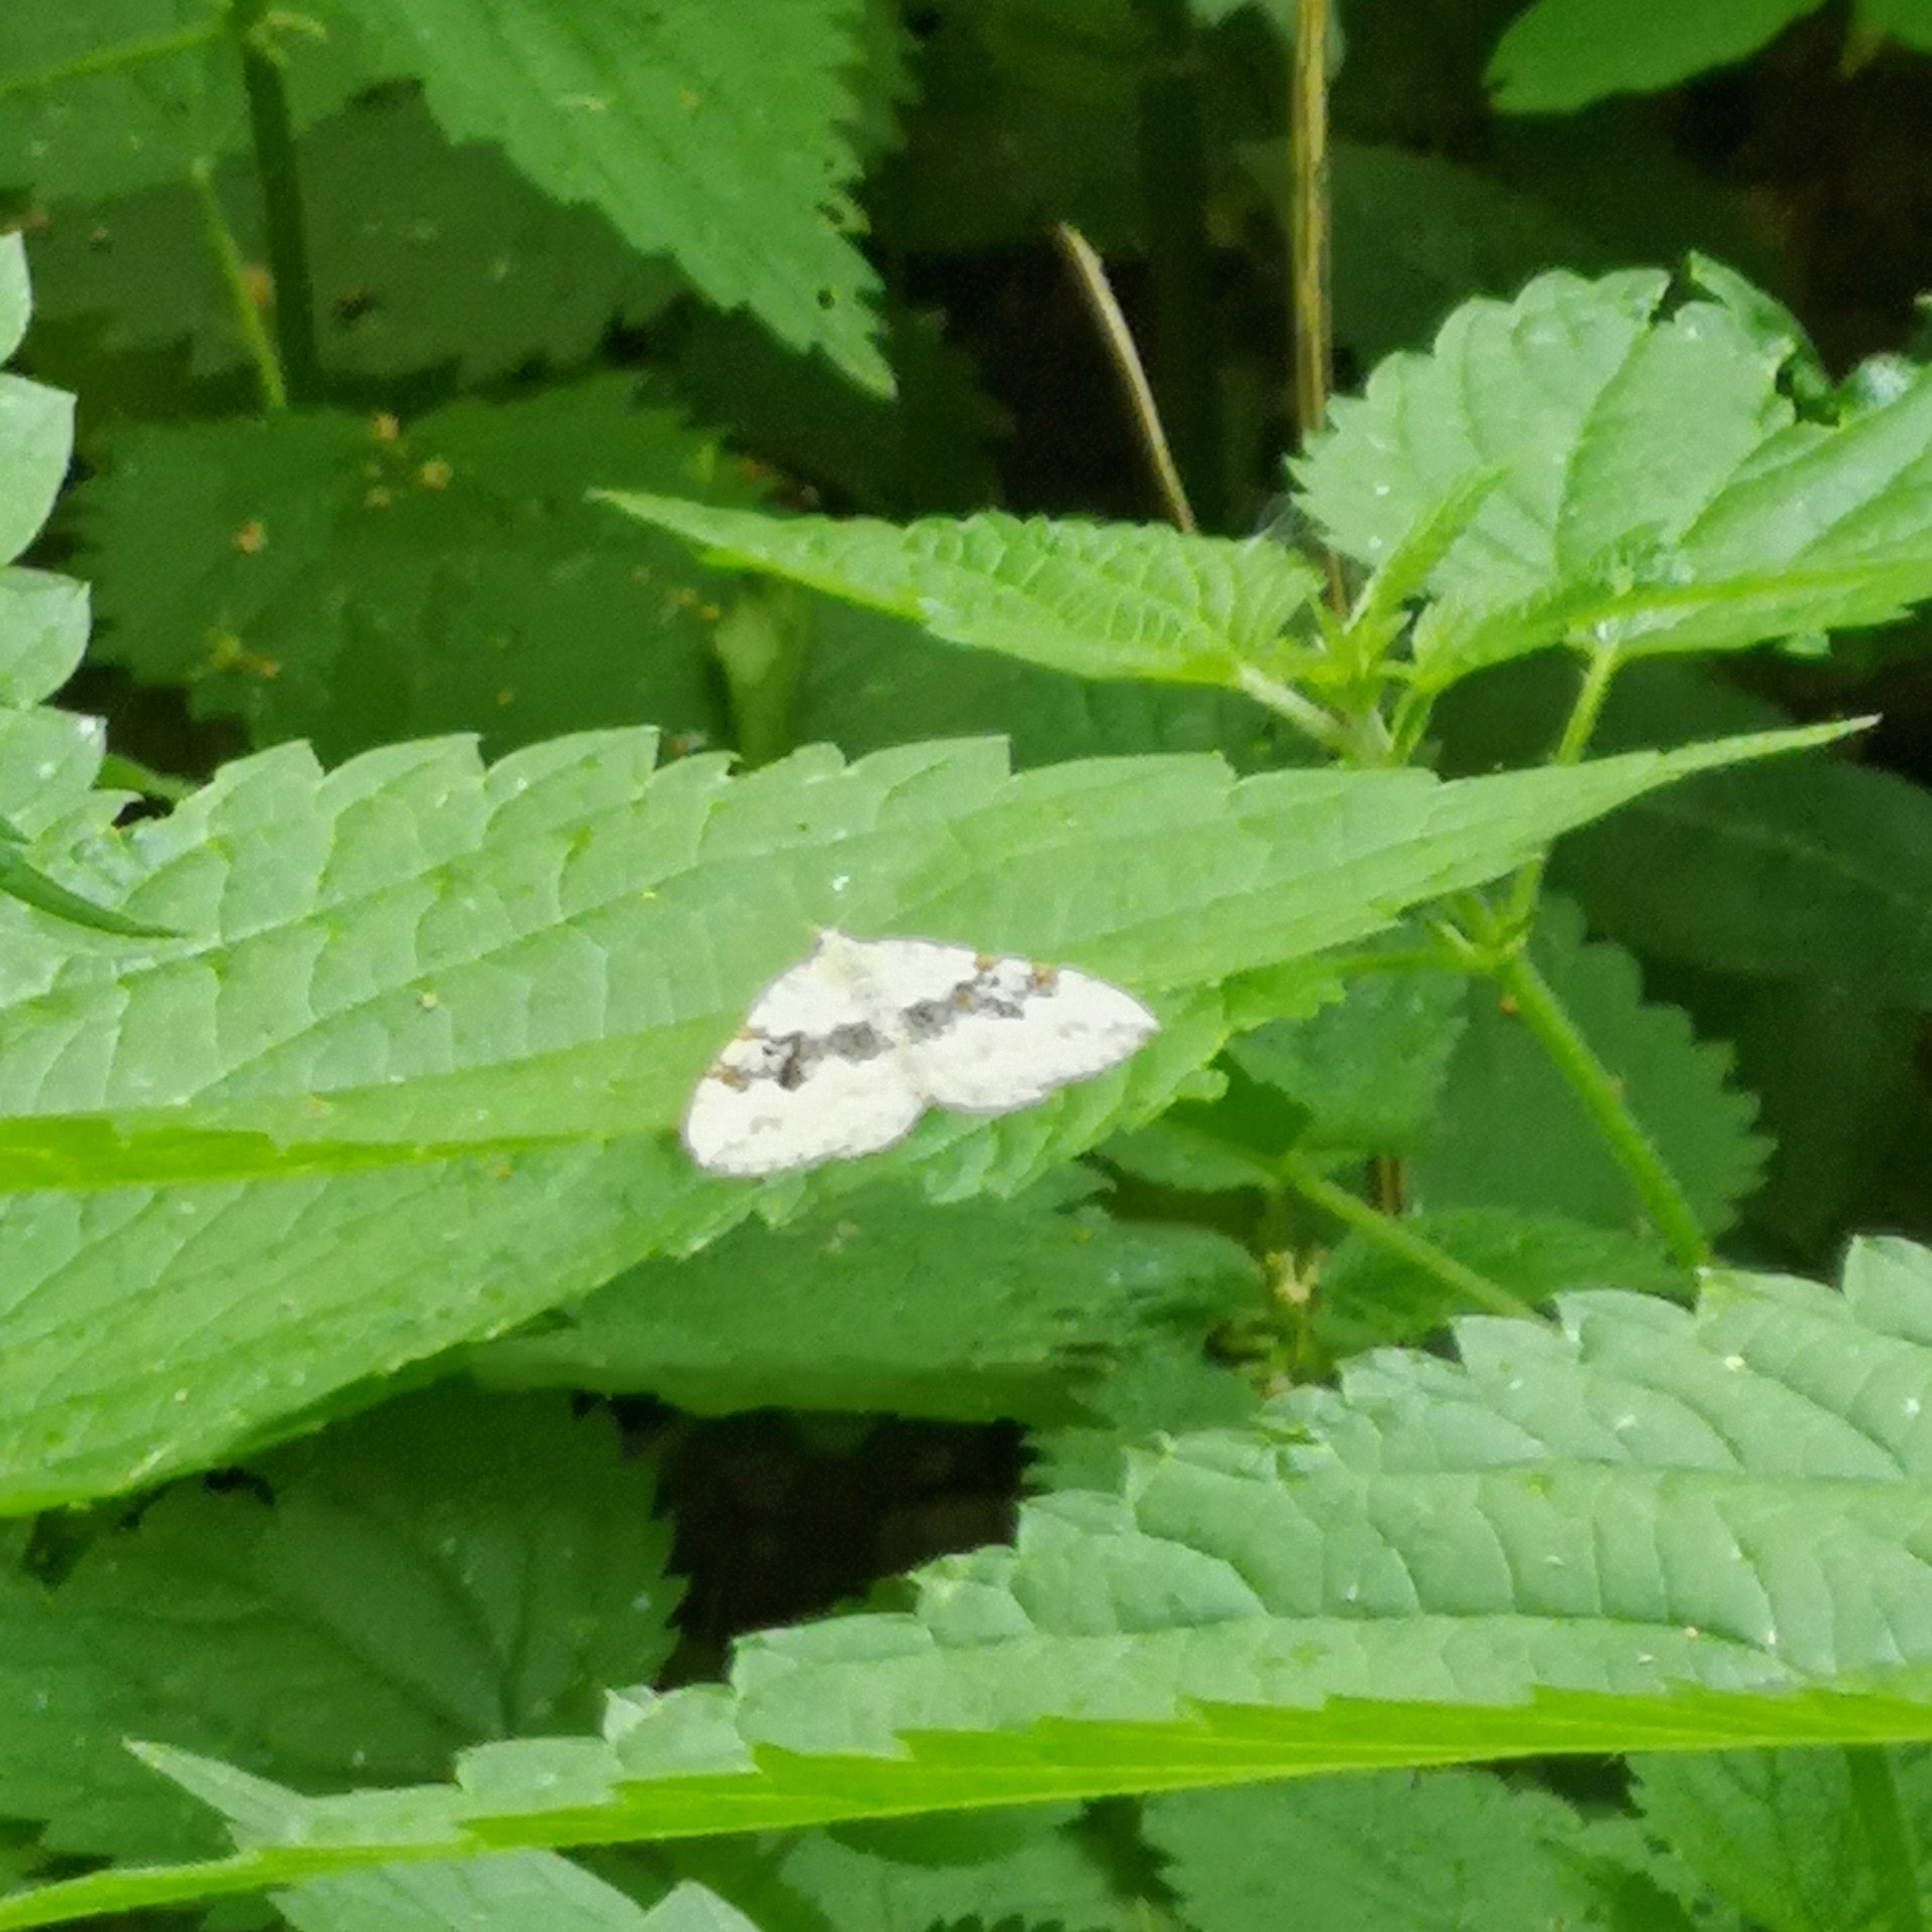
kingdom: Animalia
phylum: Arthropoda
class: Insecta
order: Lepidoptera
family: Geometridae
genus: Xanthorhoe
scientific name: Xanthorhoe montanata
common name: Silver-ground carpet
